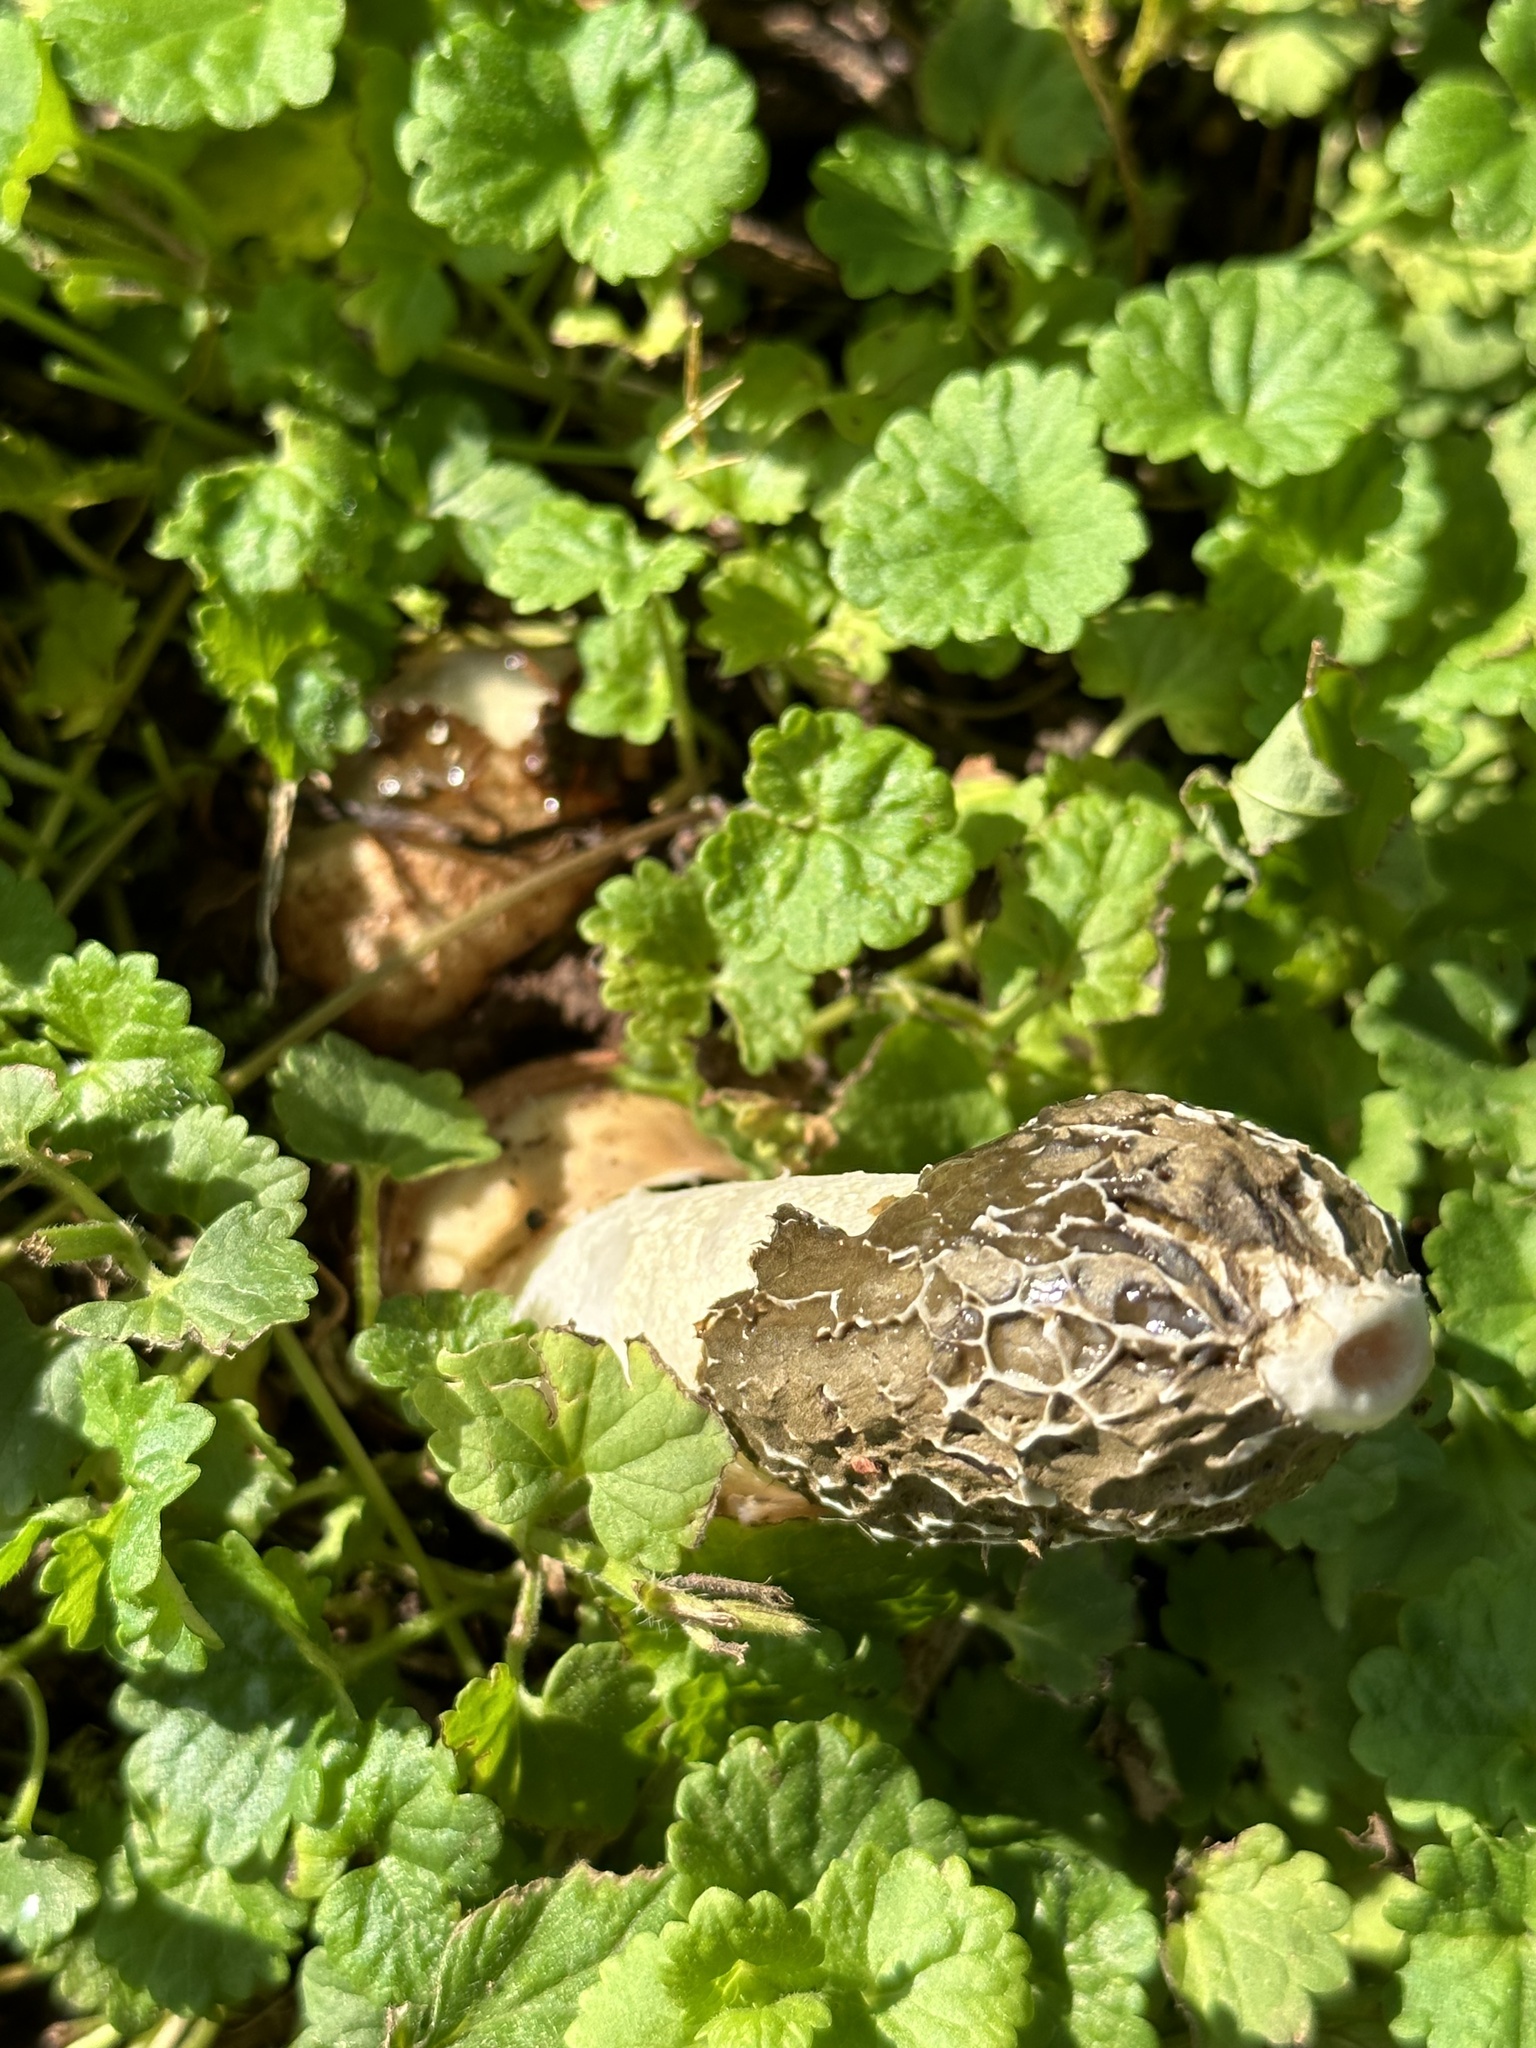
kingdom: Fungi
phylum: Basidiomycota
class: Agaricomycetes
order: Phallales
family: Phallaceae
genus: Phallus
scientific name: Phallus hadriani
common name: Sand stinkhorn
